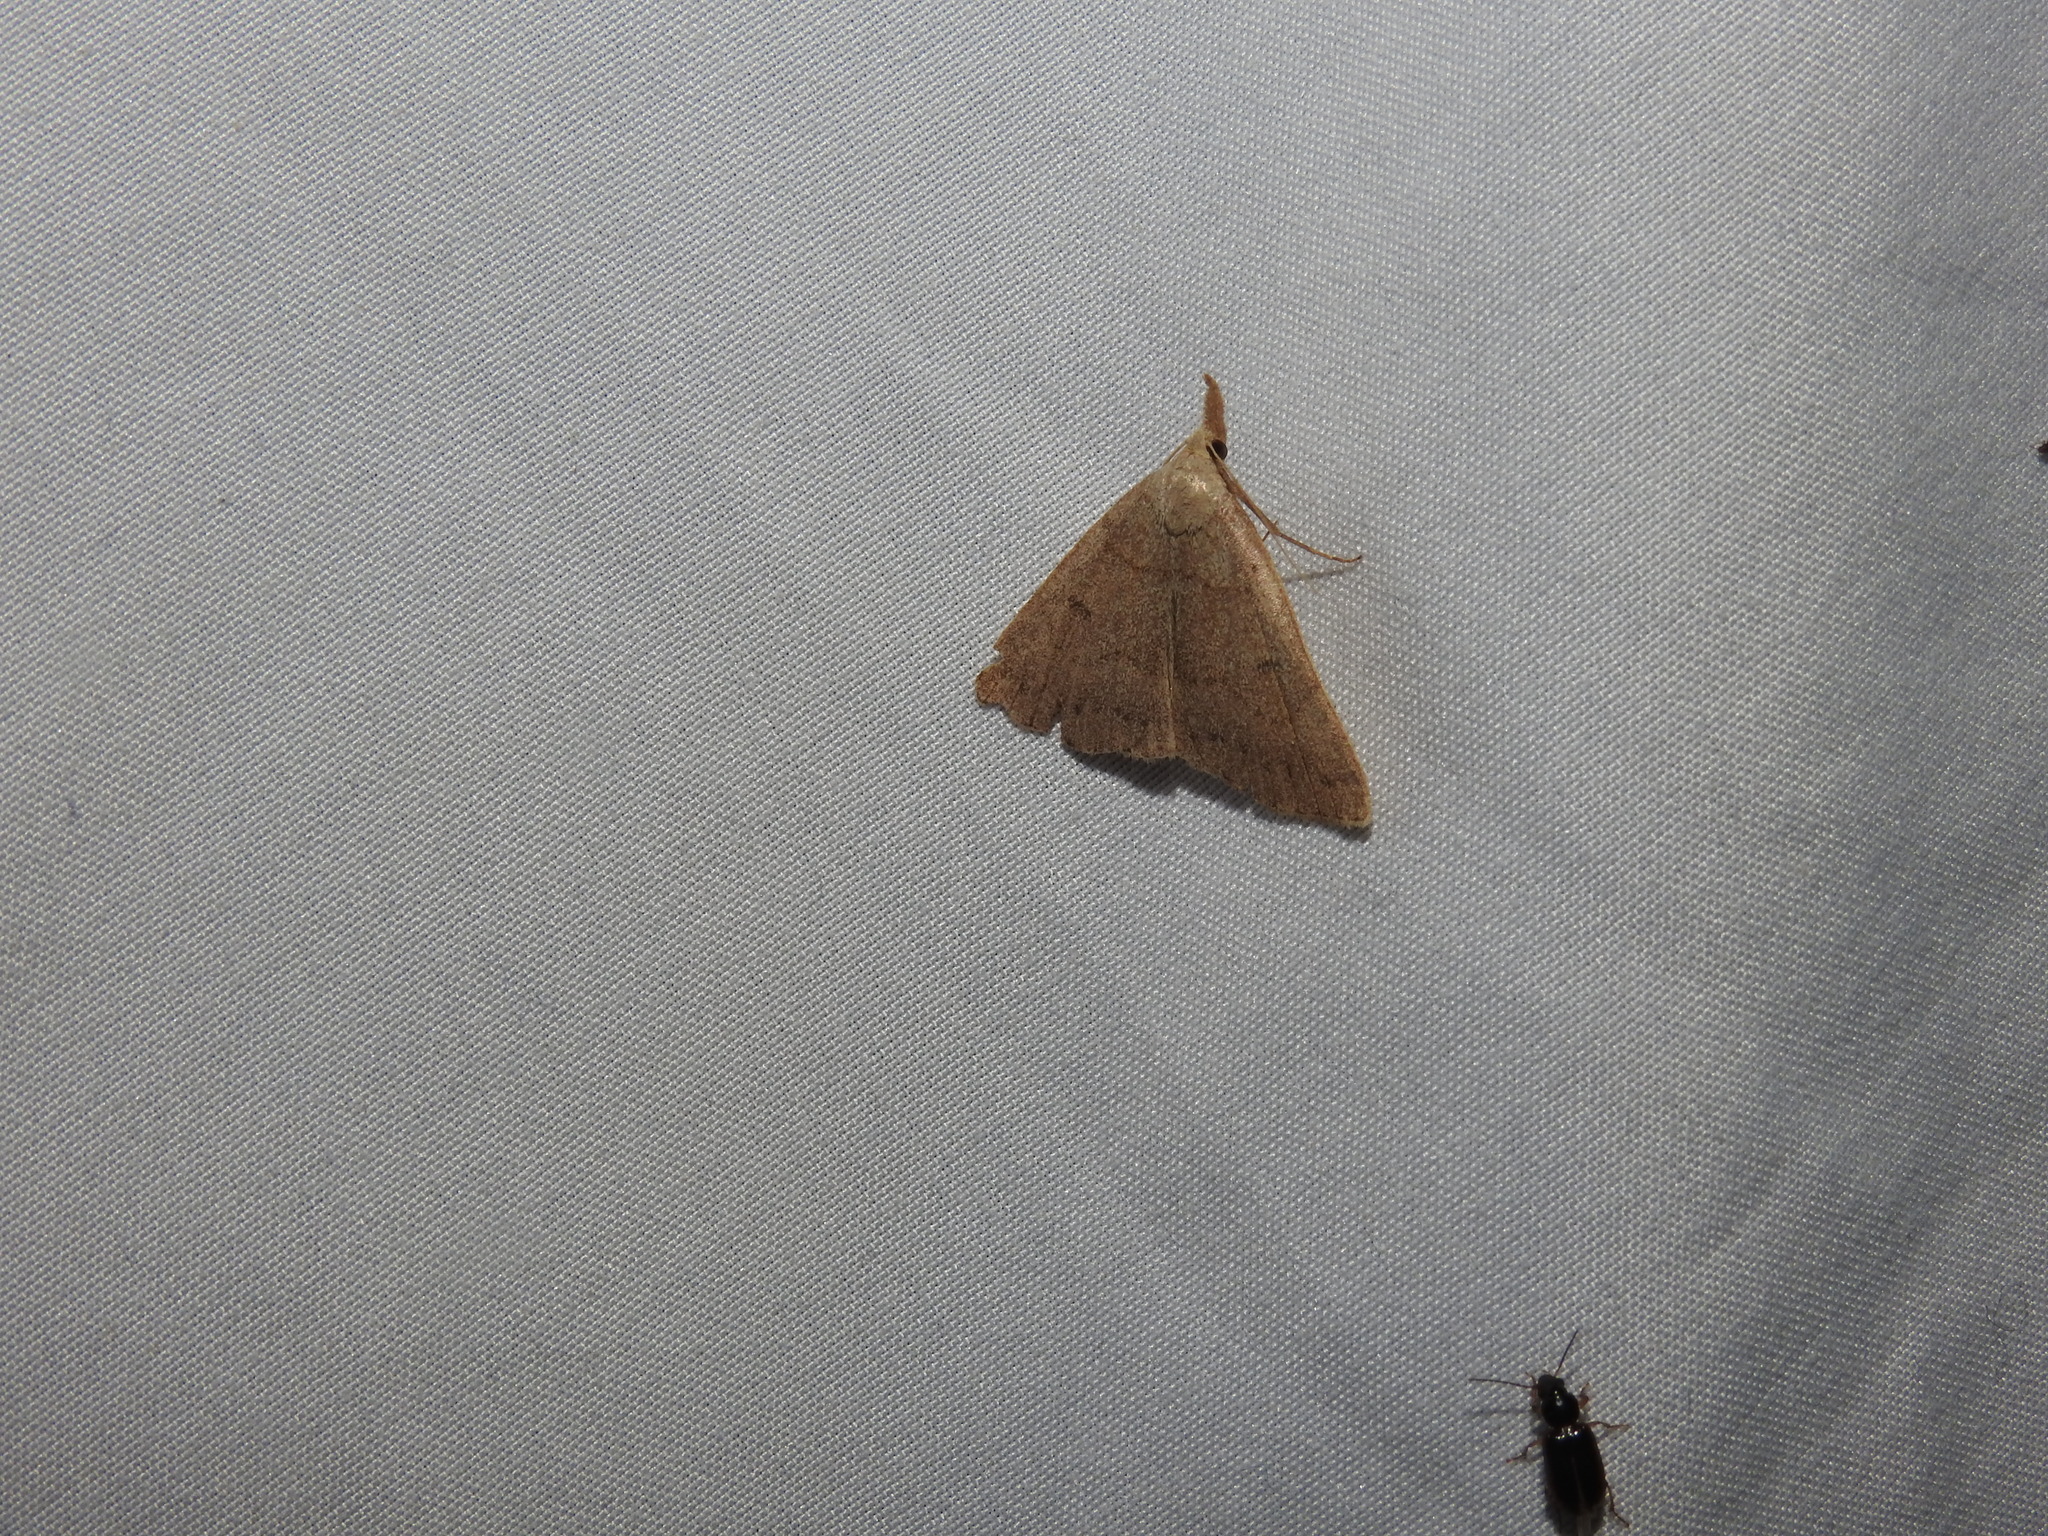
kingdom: Animalia
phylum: Arthropoda
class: Insecta
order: Lepidoptera
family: Erebidae
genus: Macrochilo
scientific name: Macrochilo morbidalis
